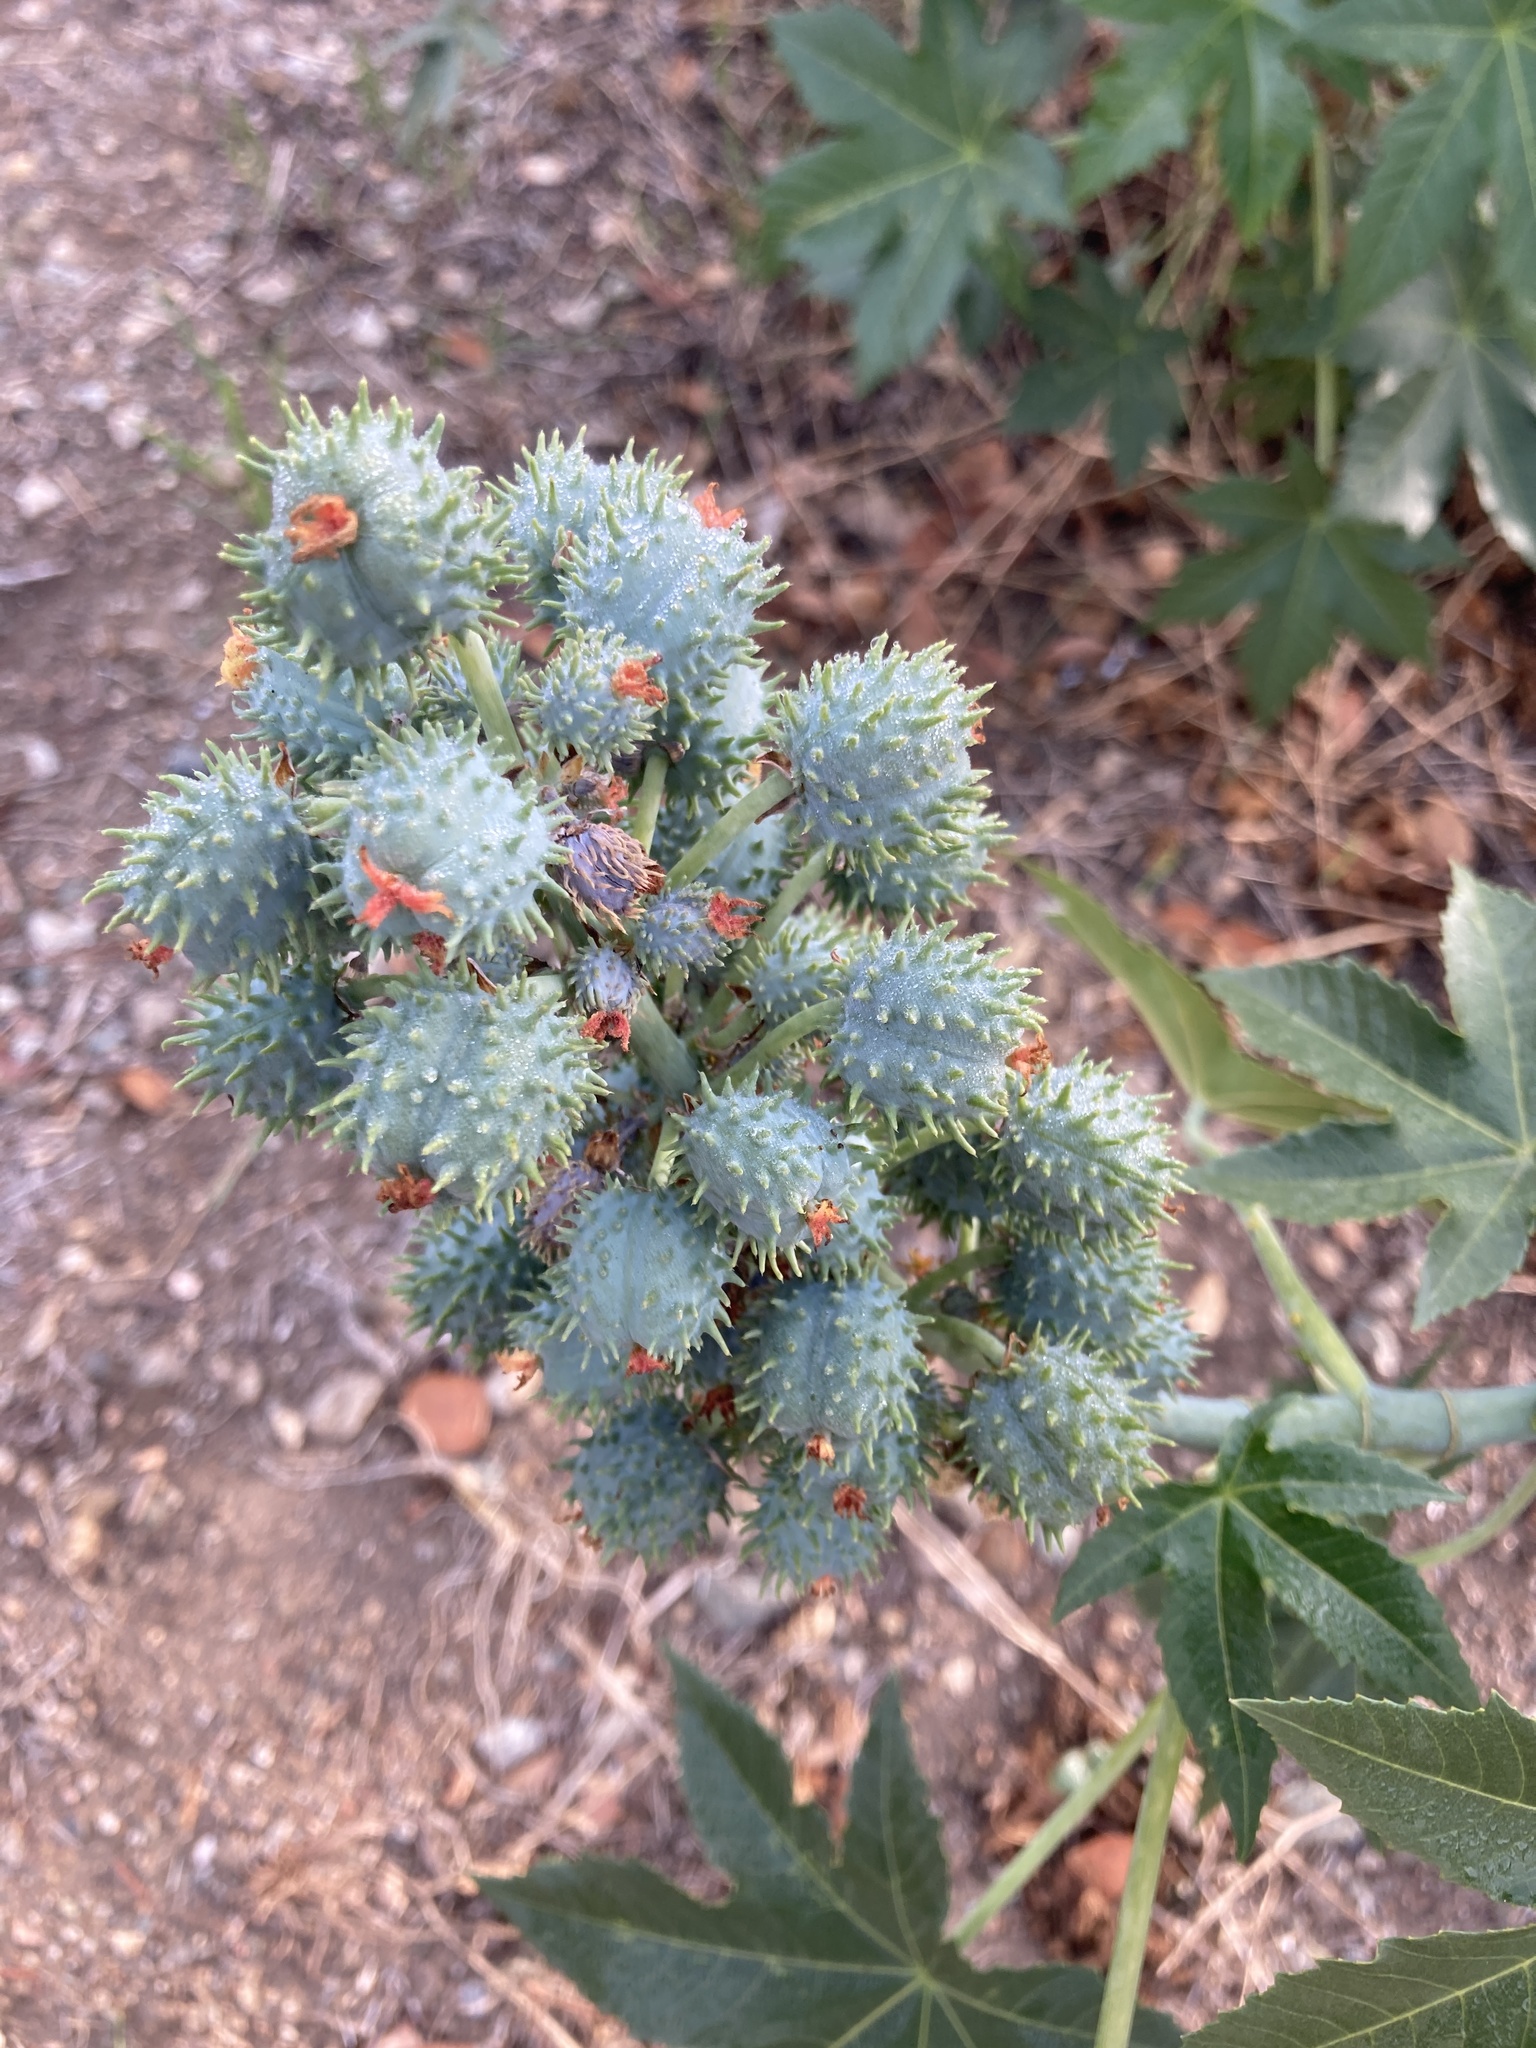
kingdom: Plantae
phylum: Tracheophyta
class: Magnoliopsida
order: Malpighiales
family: Euphorbiaceae
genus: Ricinus
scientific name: Ricinus communis
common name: Castor-oil-plant
